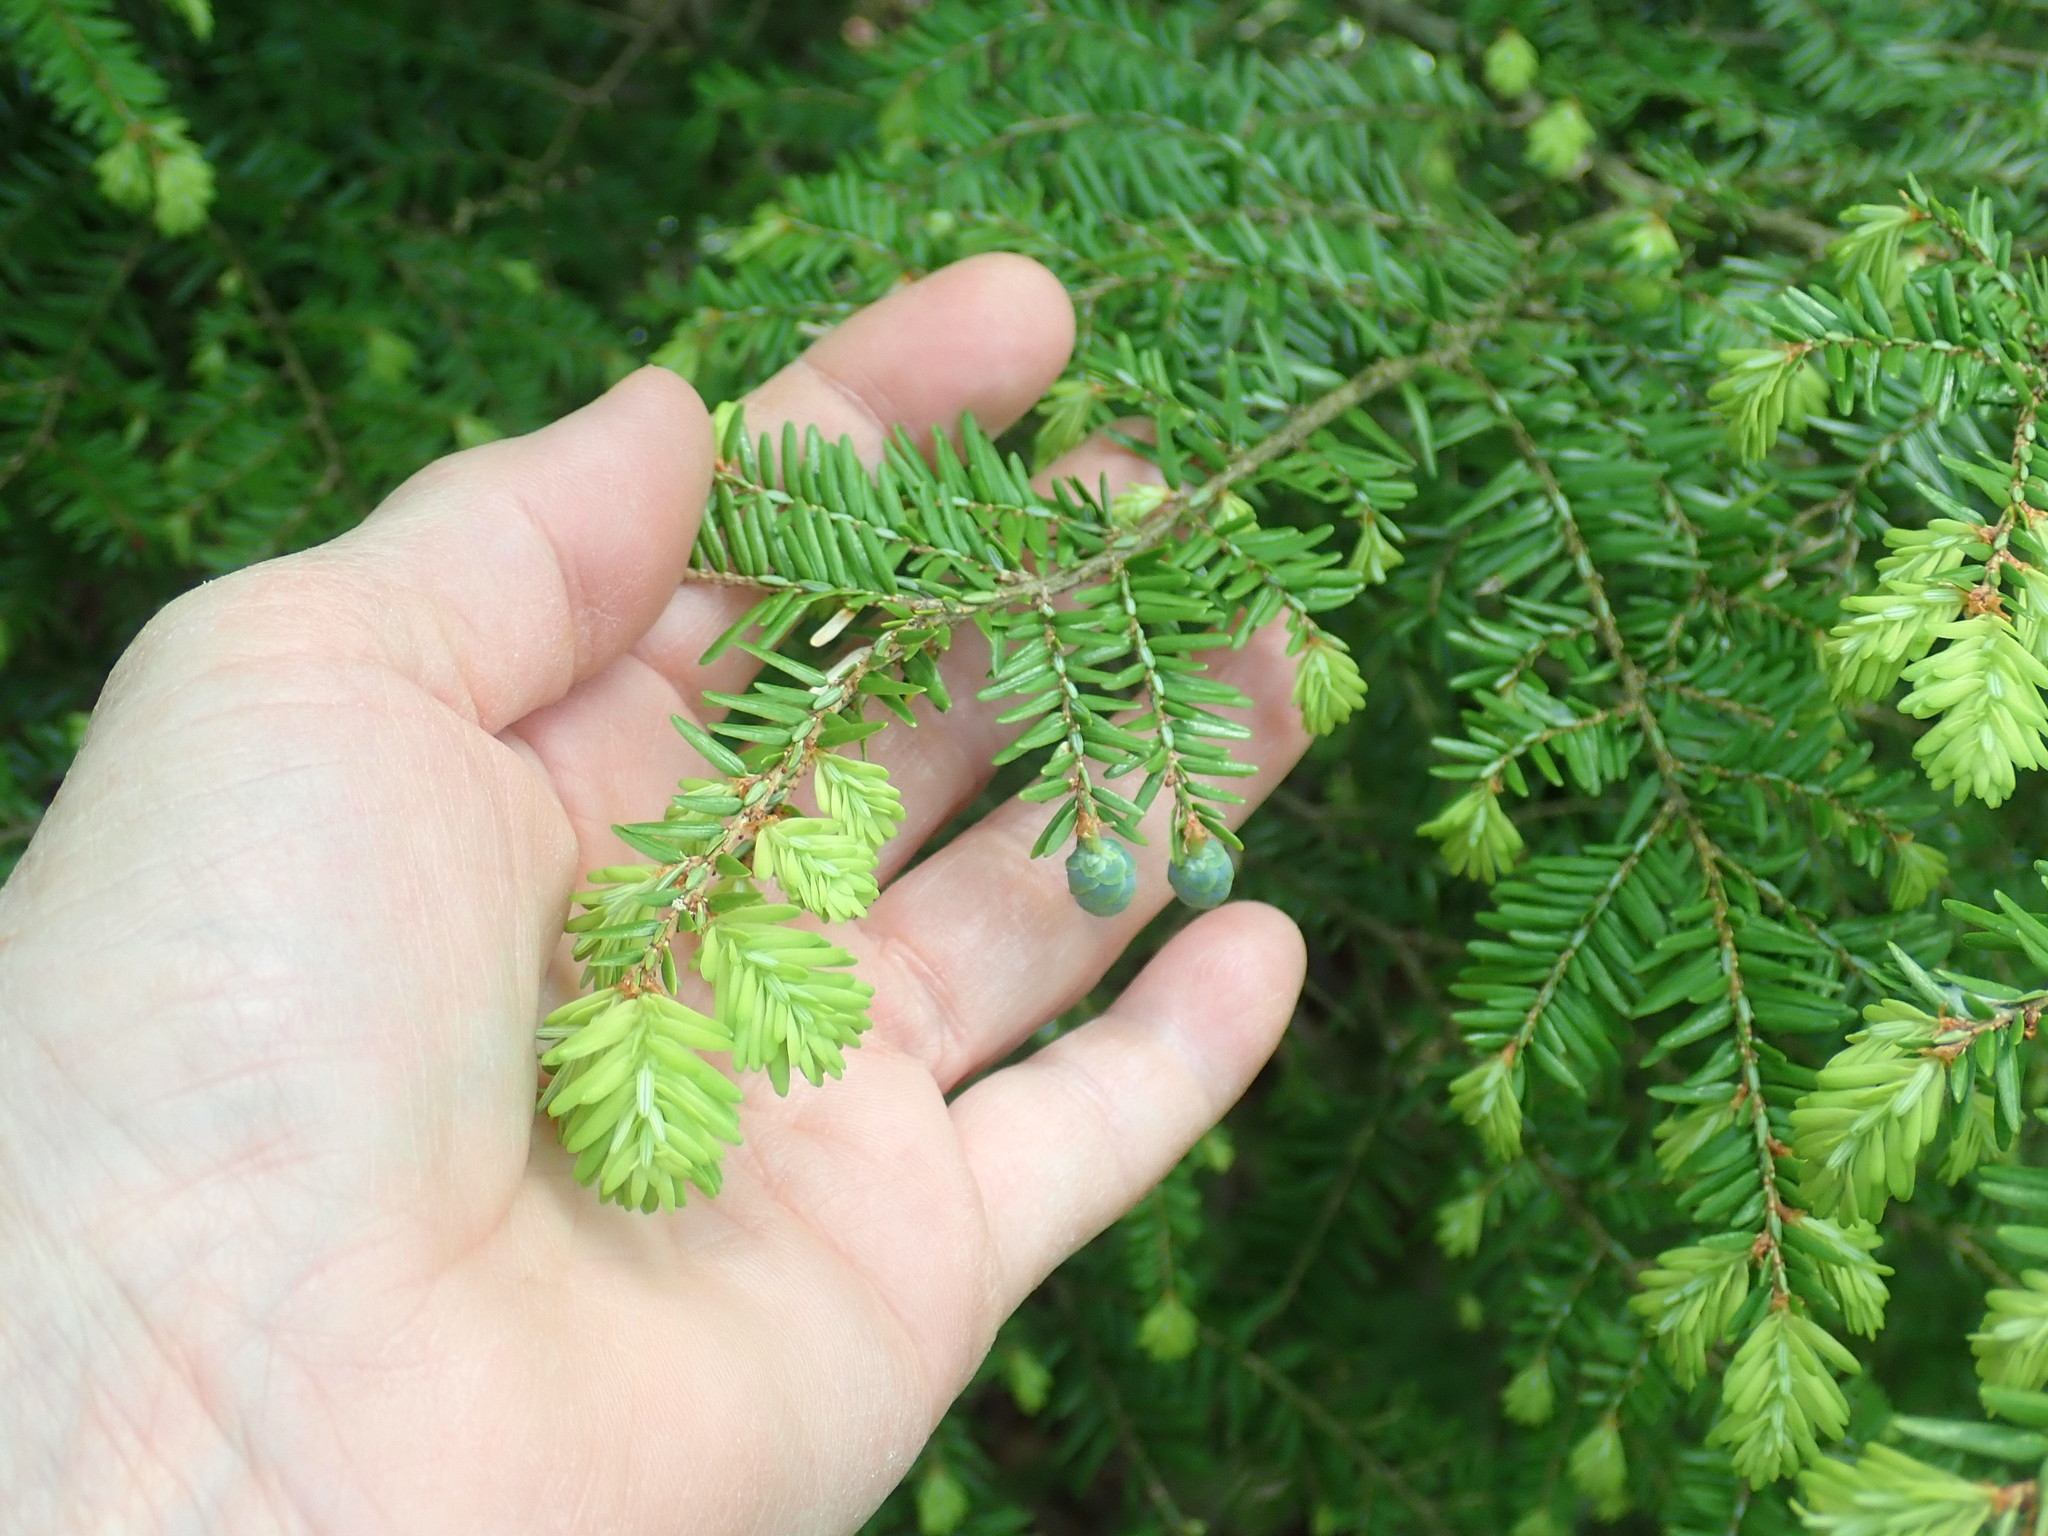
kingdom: Plantae
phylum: Tracheophyta
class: Pinopsida
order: Pinales
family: Pinaceae
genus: Tsuga
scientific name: Tsuga canadensis
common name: Eastern hemlock
